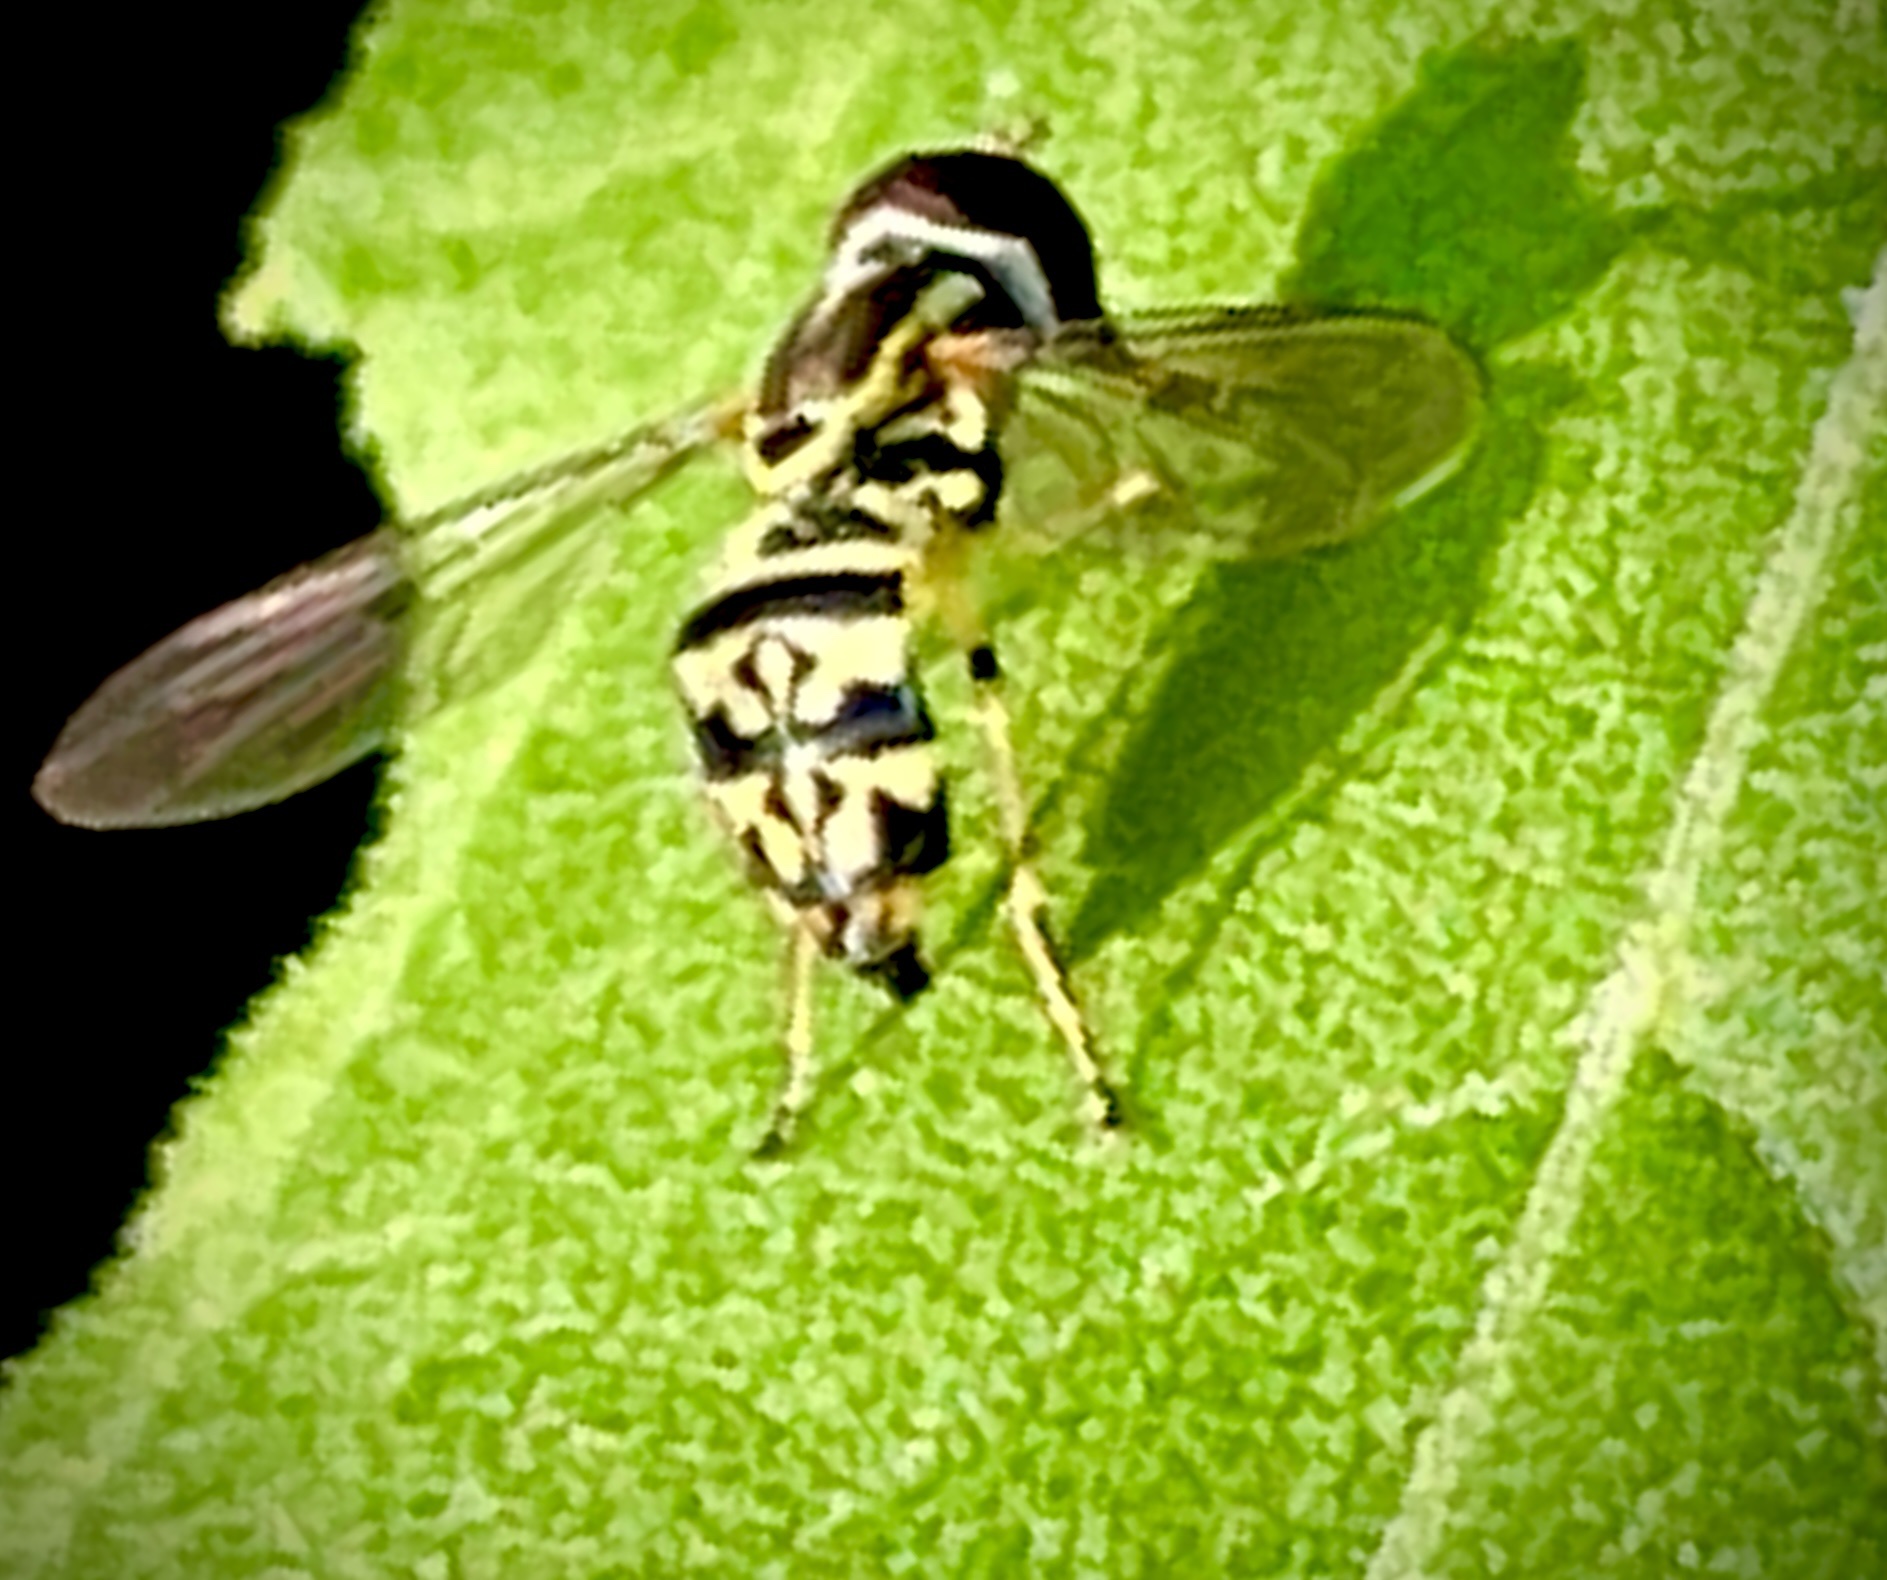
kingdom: Animalia
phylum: Arthropoda
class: Insecta
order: Diptera
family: Syrphidae
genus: Toxomerus
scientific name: Toxomerus geminatus
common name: Eastern calligrapher
